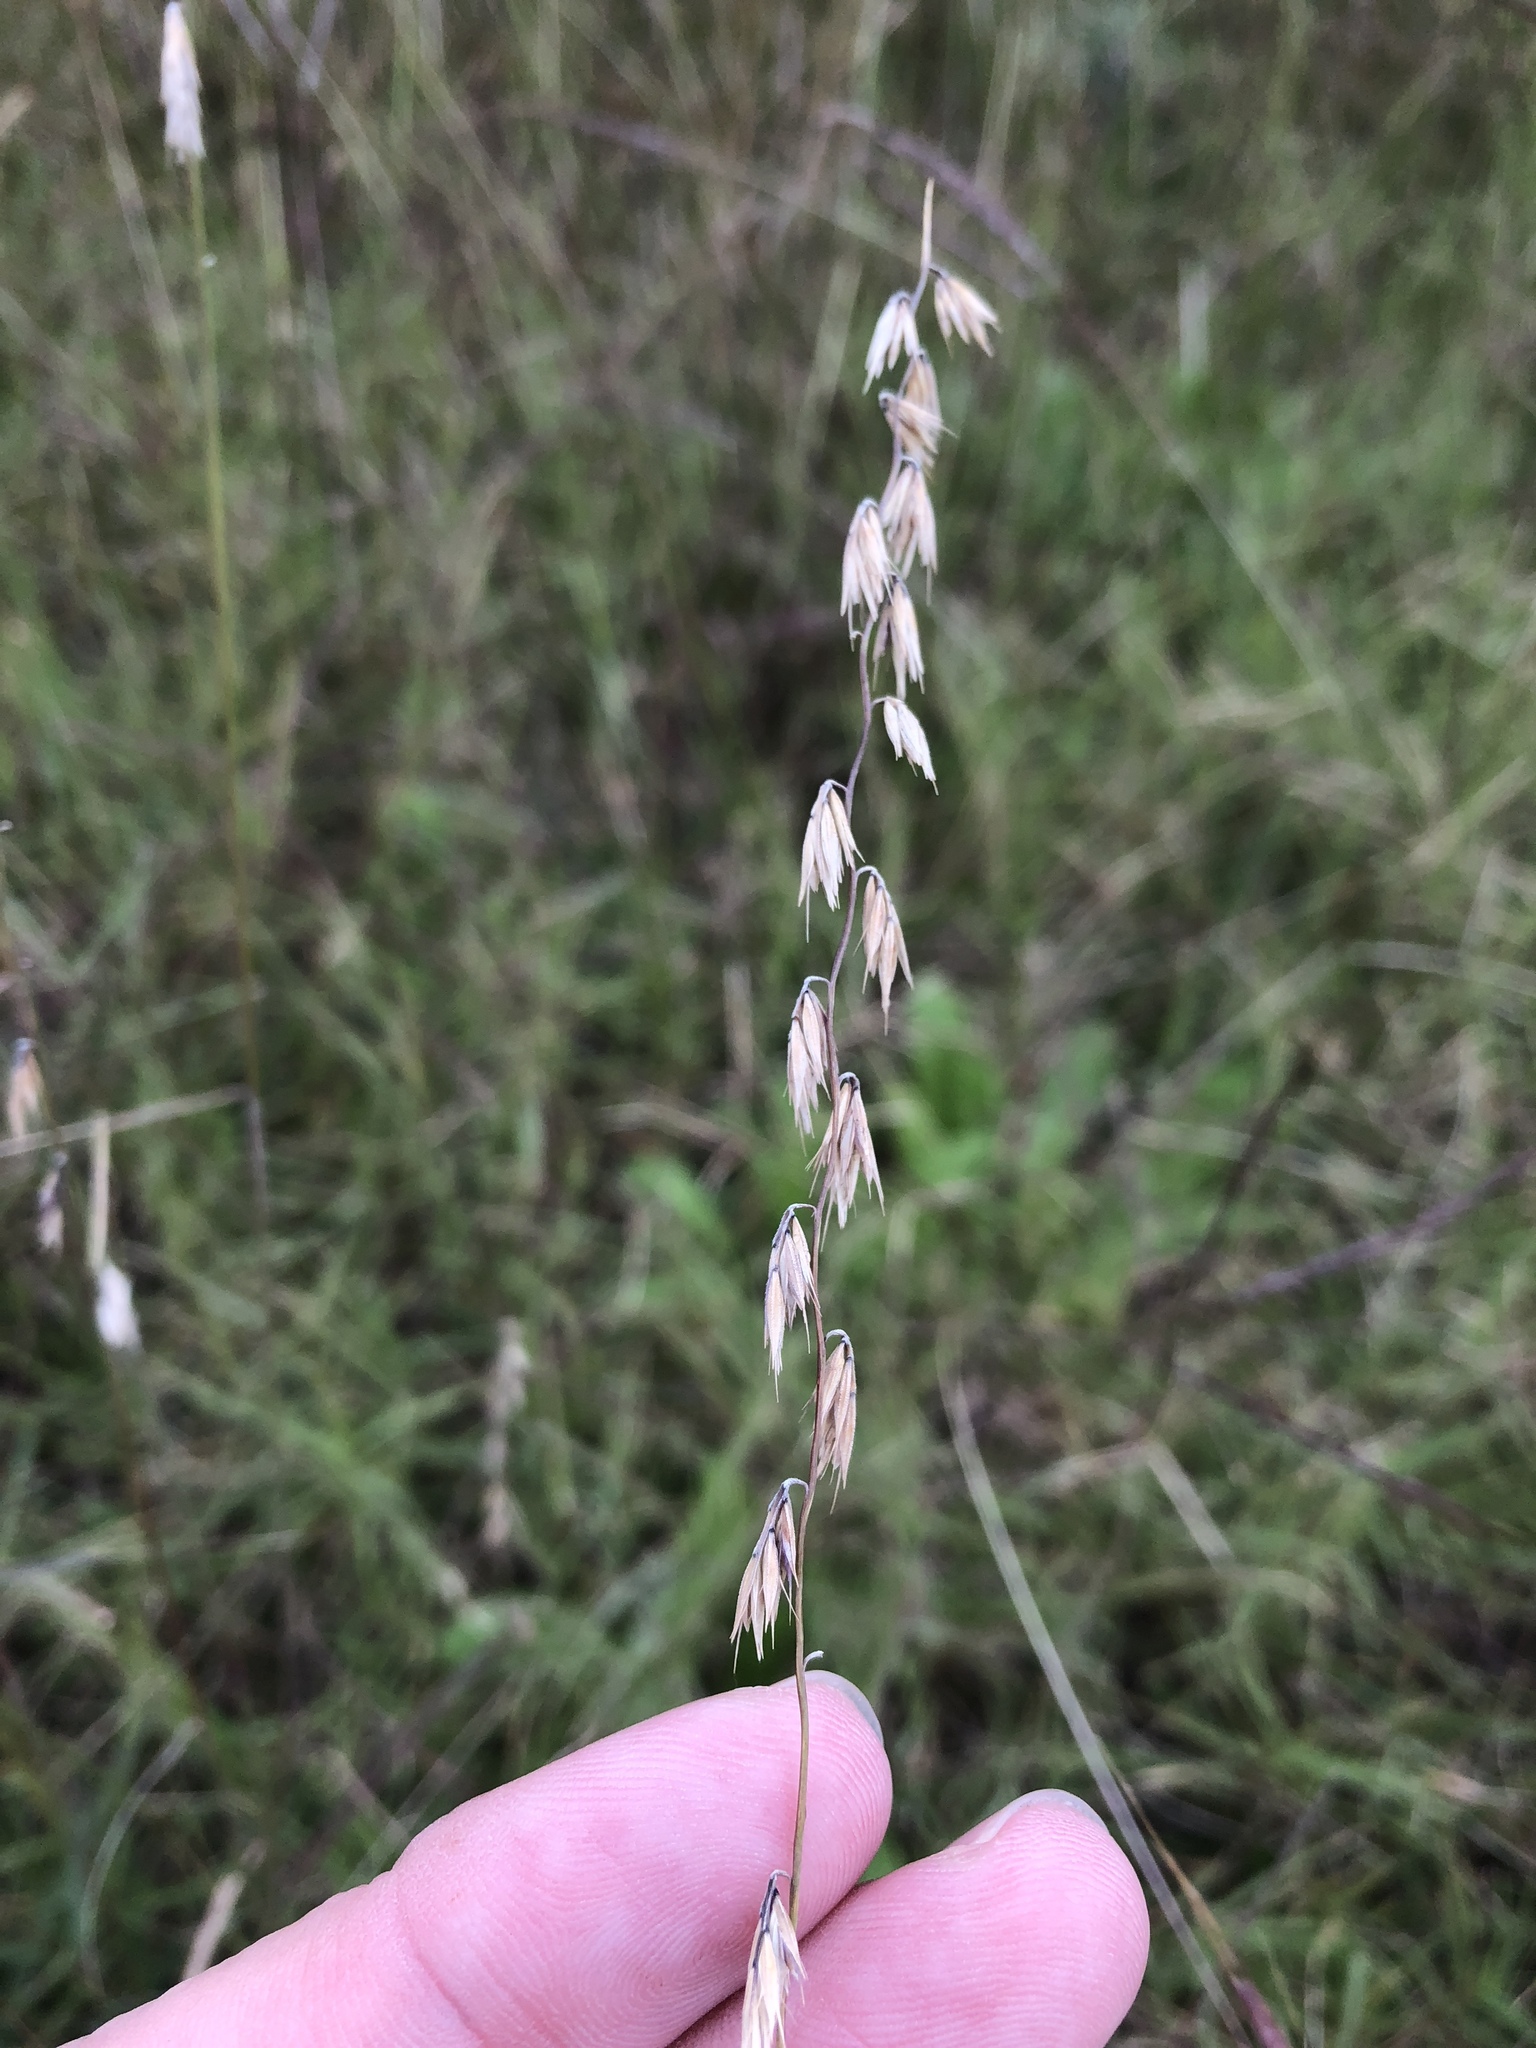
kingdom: Plantae
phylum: Tracheophyta
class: Liliopsida
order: Poales
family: Poaceae
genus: Bouteloua
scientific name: Bouteloua curtipendula
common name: Side-oats grama
